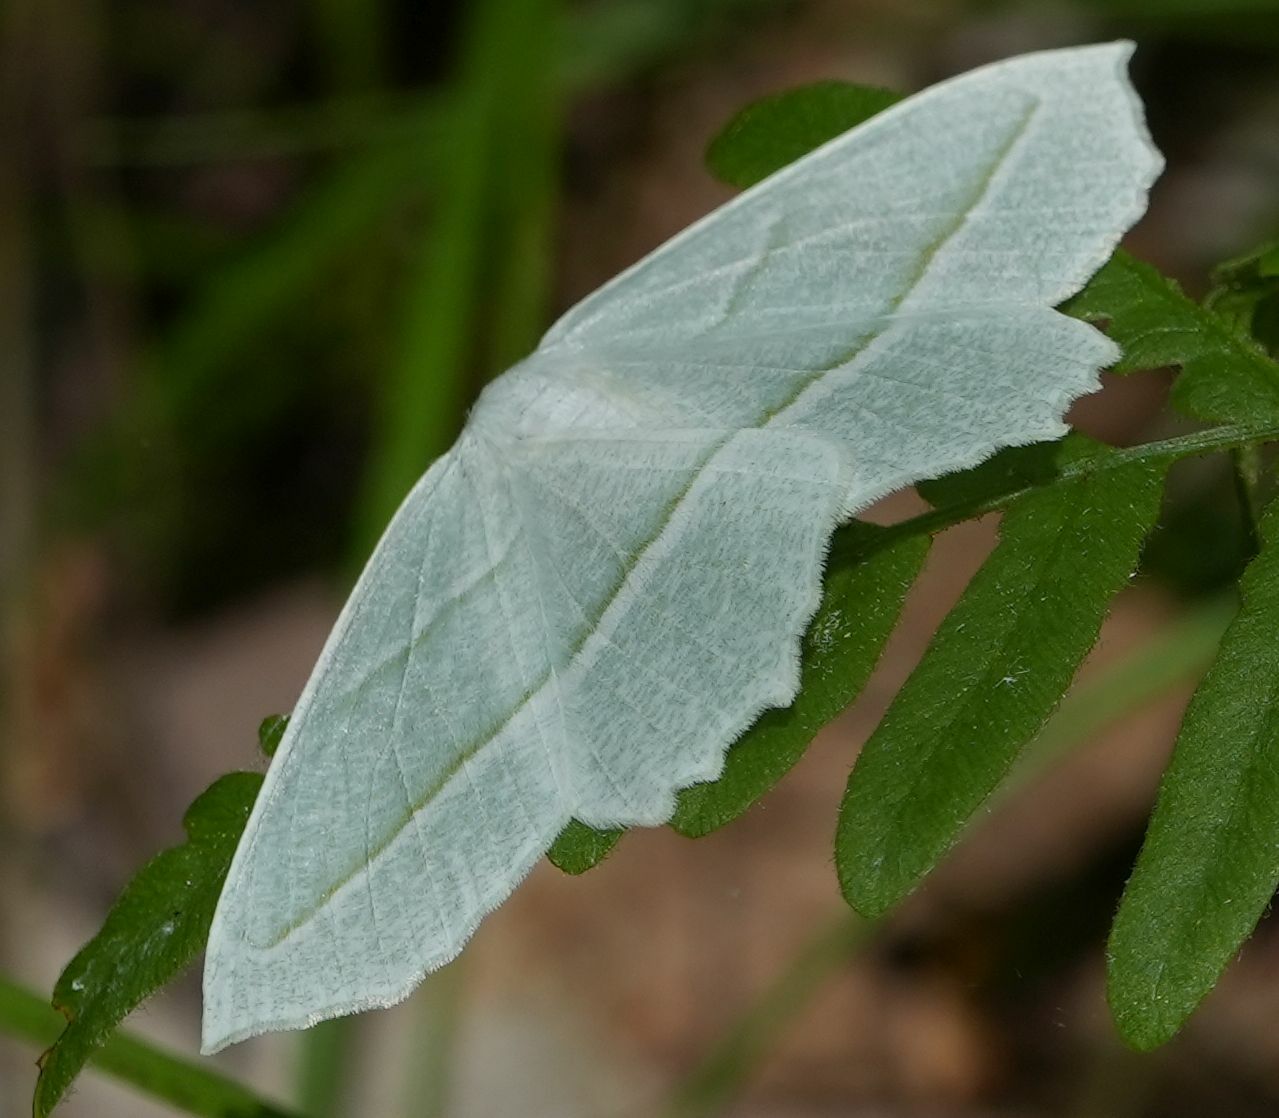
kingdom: Animalia
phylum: Arthropoda
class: Insecta
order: Lepidoptera
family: Geometridae
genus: Campaea
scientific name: Campaea perlata
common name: Fringed looper
